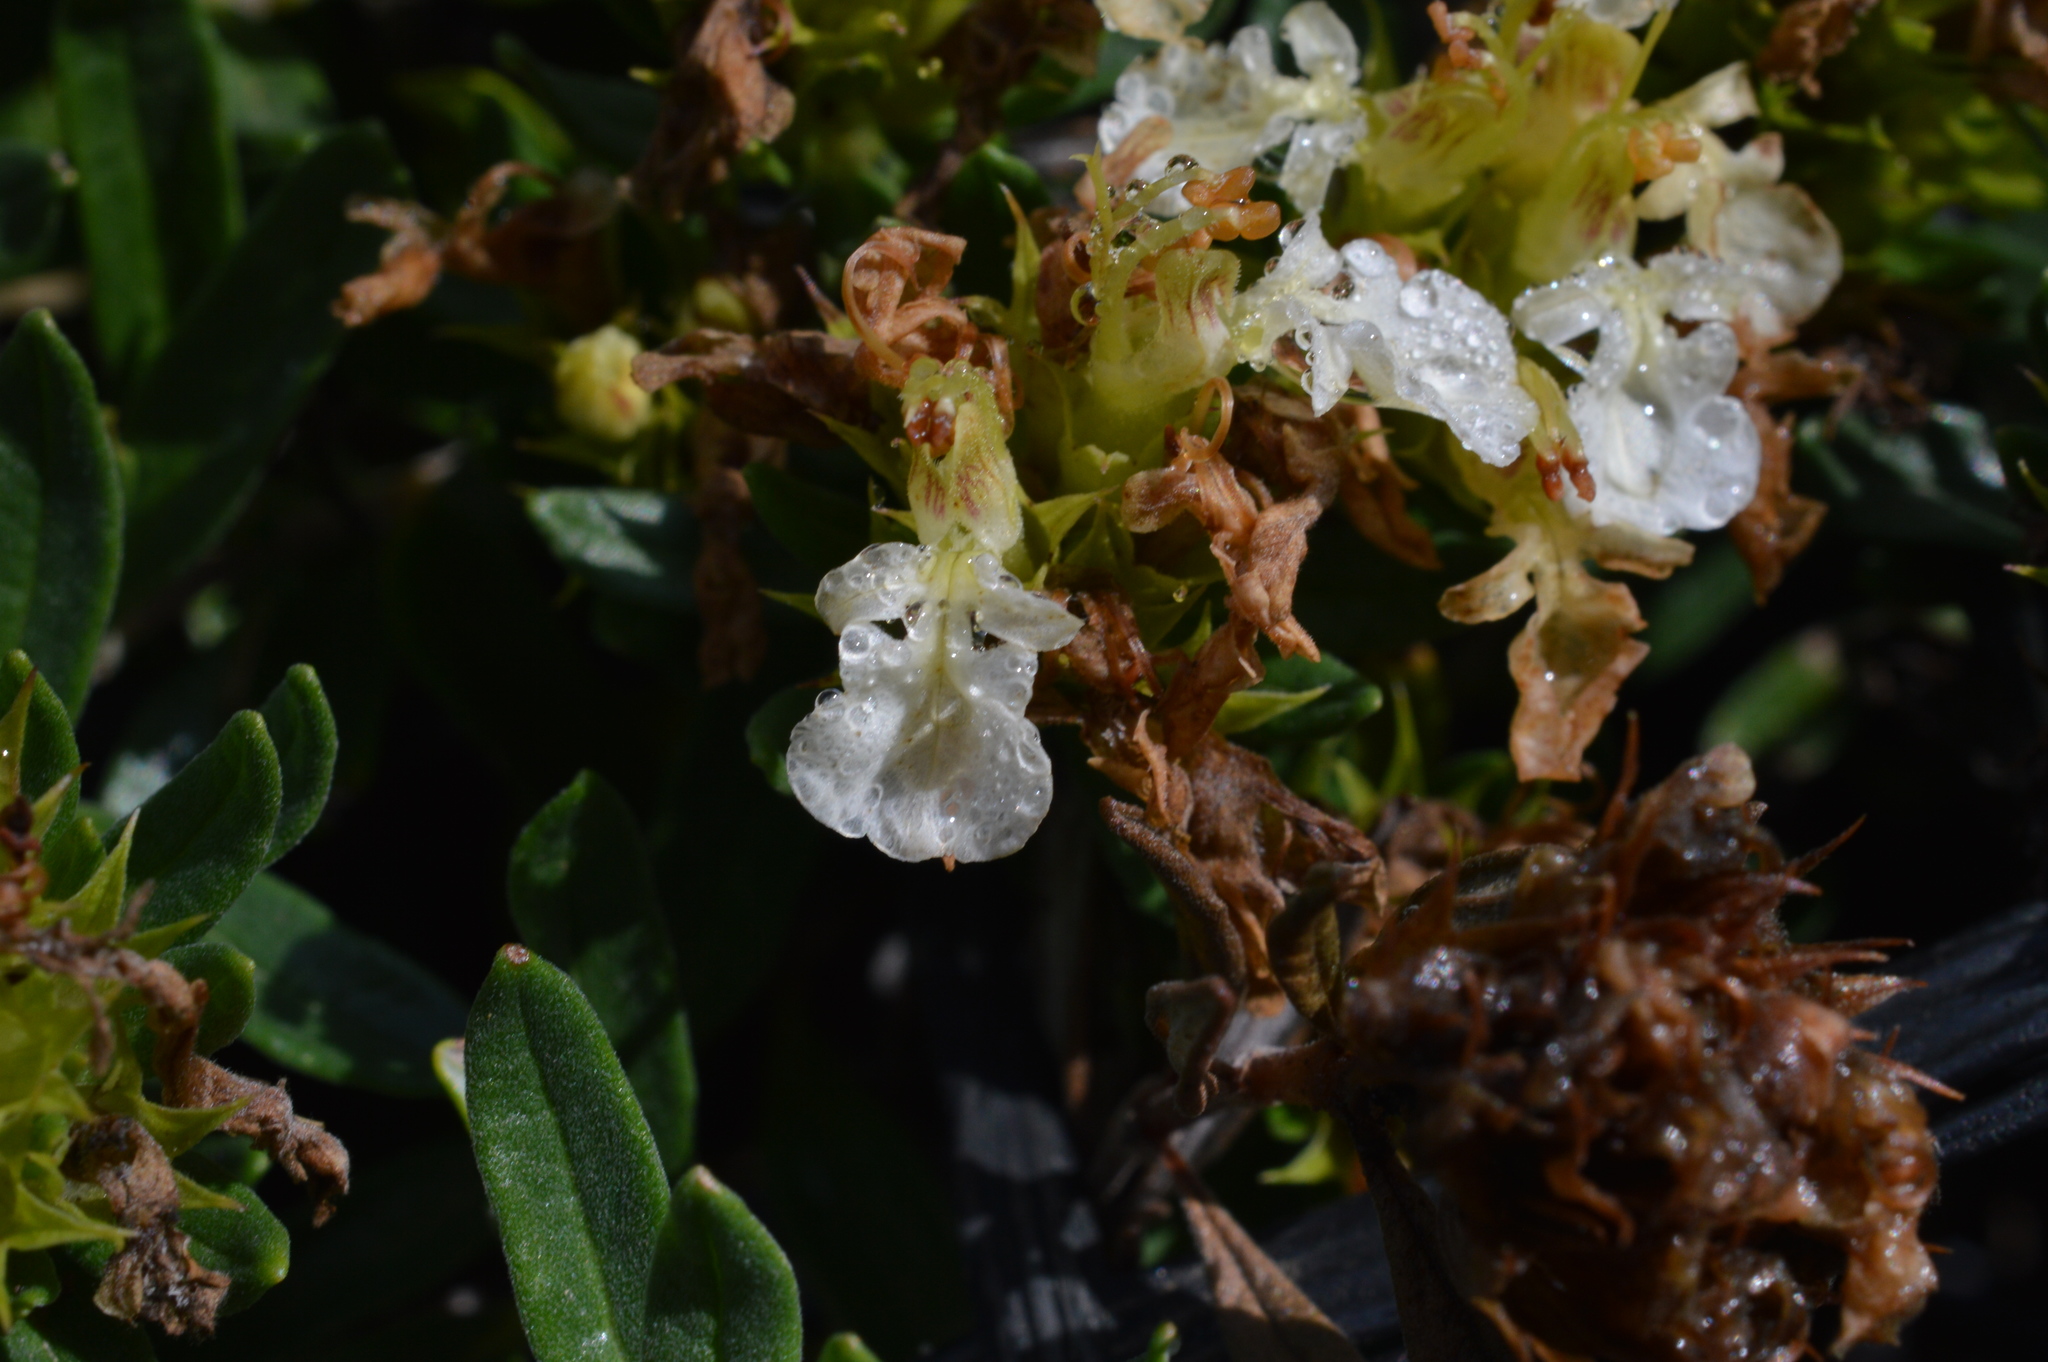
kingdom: Plantae
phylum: Tracheophyta
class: Magnoliopsida
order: Lamiales
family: Lamiaceae
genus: Teucrium
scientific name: Teucrium montanum
